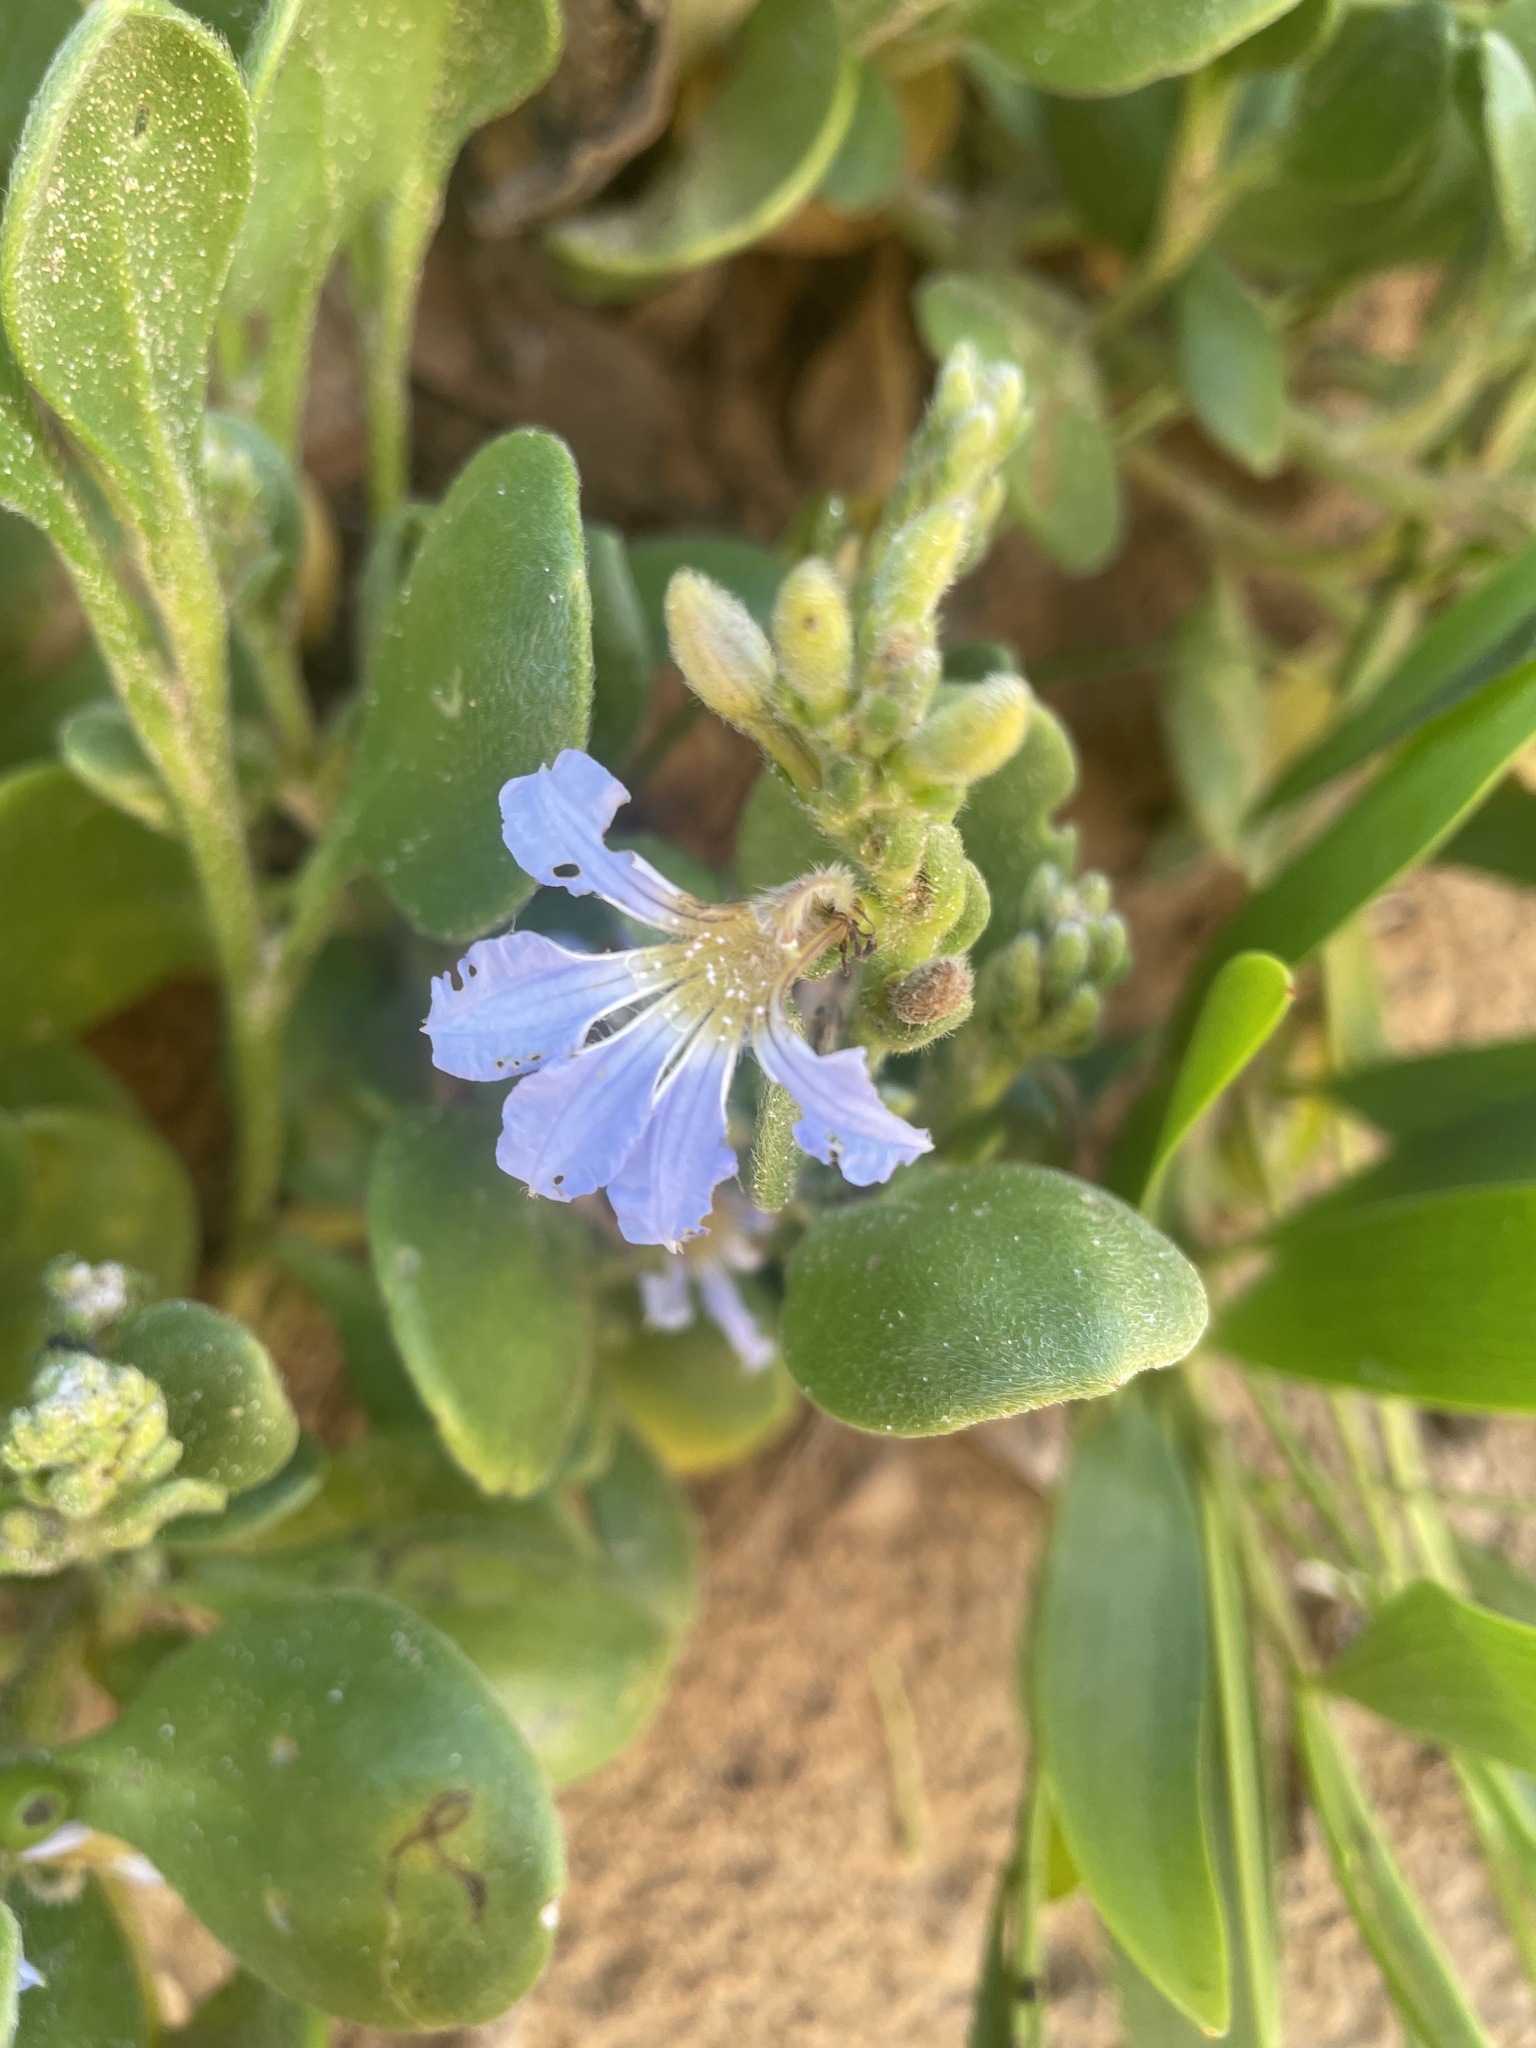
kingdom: Plantae
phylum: Tracheophyta
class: Magnoliopsida
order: Asterales
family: Goodeniaceae
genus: Scaevola
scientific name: Scaevola calendulacea
